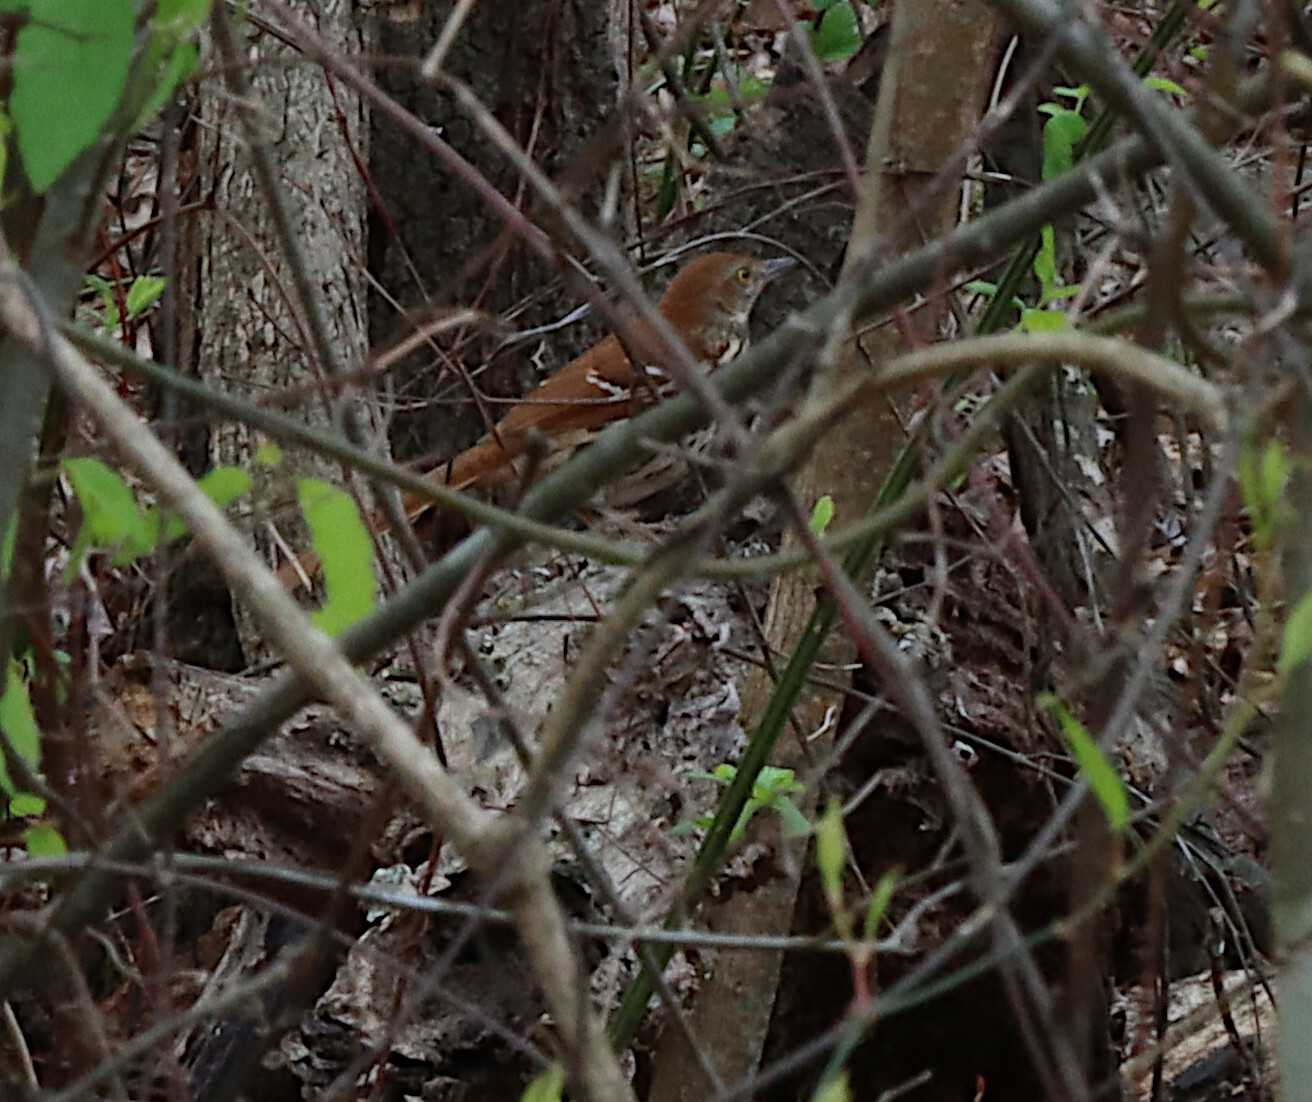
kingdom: Animalia
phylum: Chordata
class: Aves
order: Passeriformes
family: Mimidae
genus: Toxostoma
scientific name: Toxostoma rufum
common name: Brown thrasher
